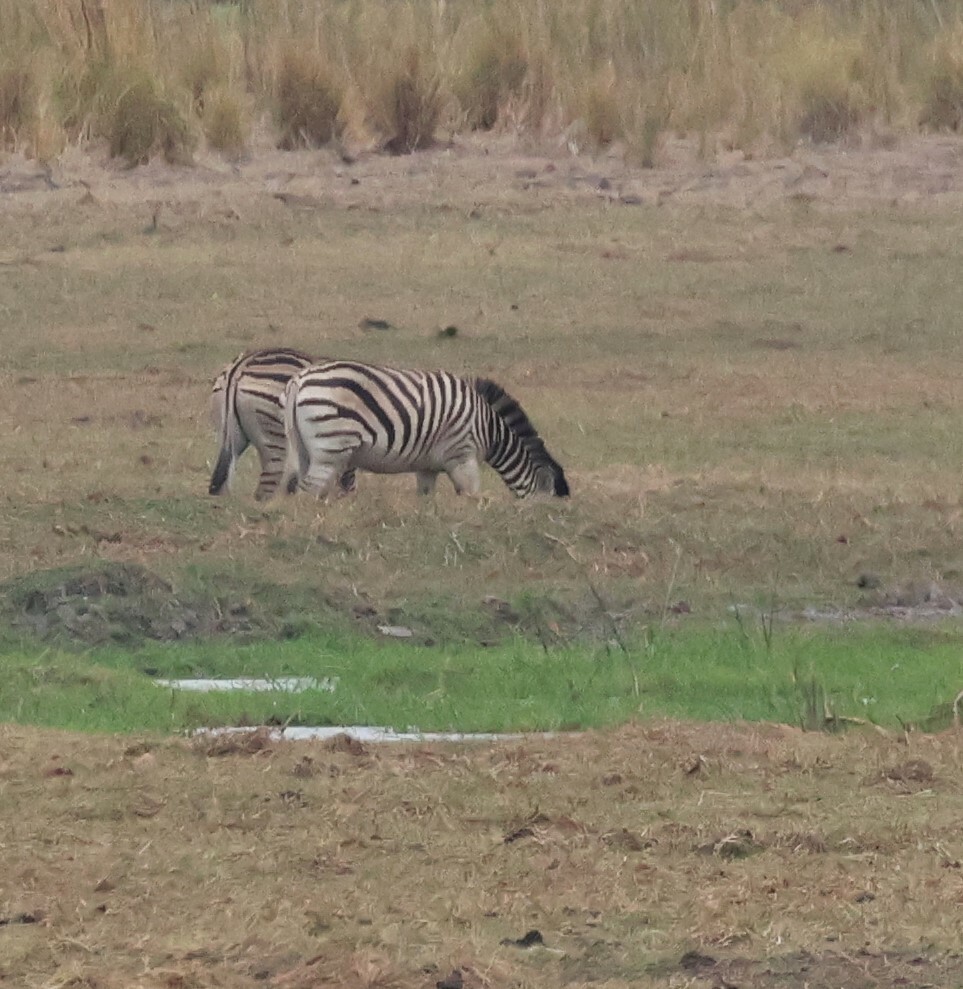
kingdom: Animalia
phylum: Chordata
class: Mammalia
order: Perissodactyla
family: Equidae
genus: Equus
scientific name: Equus quagga
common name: Plains zebra
